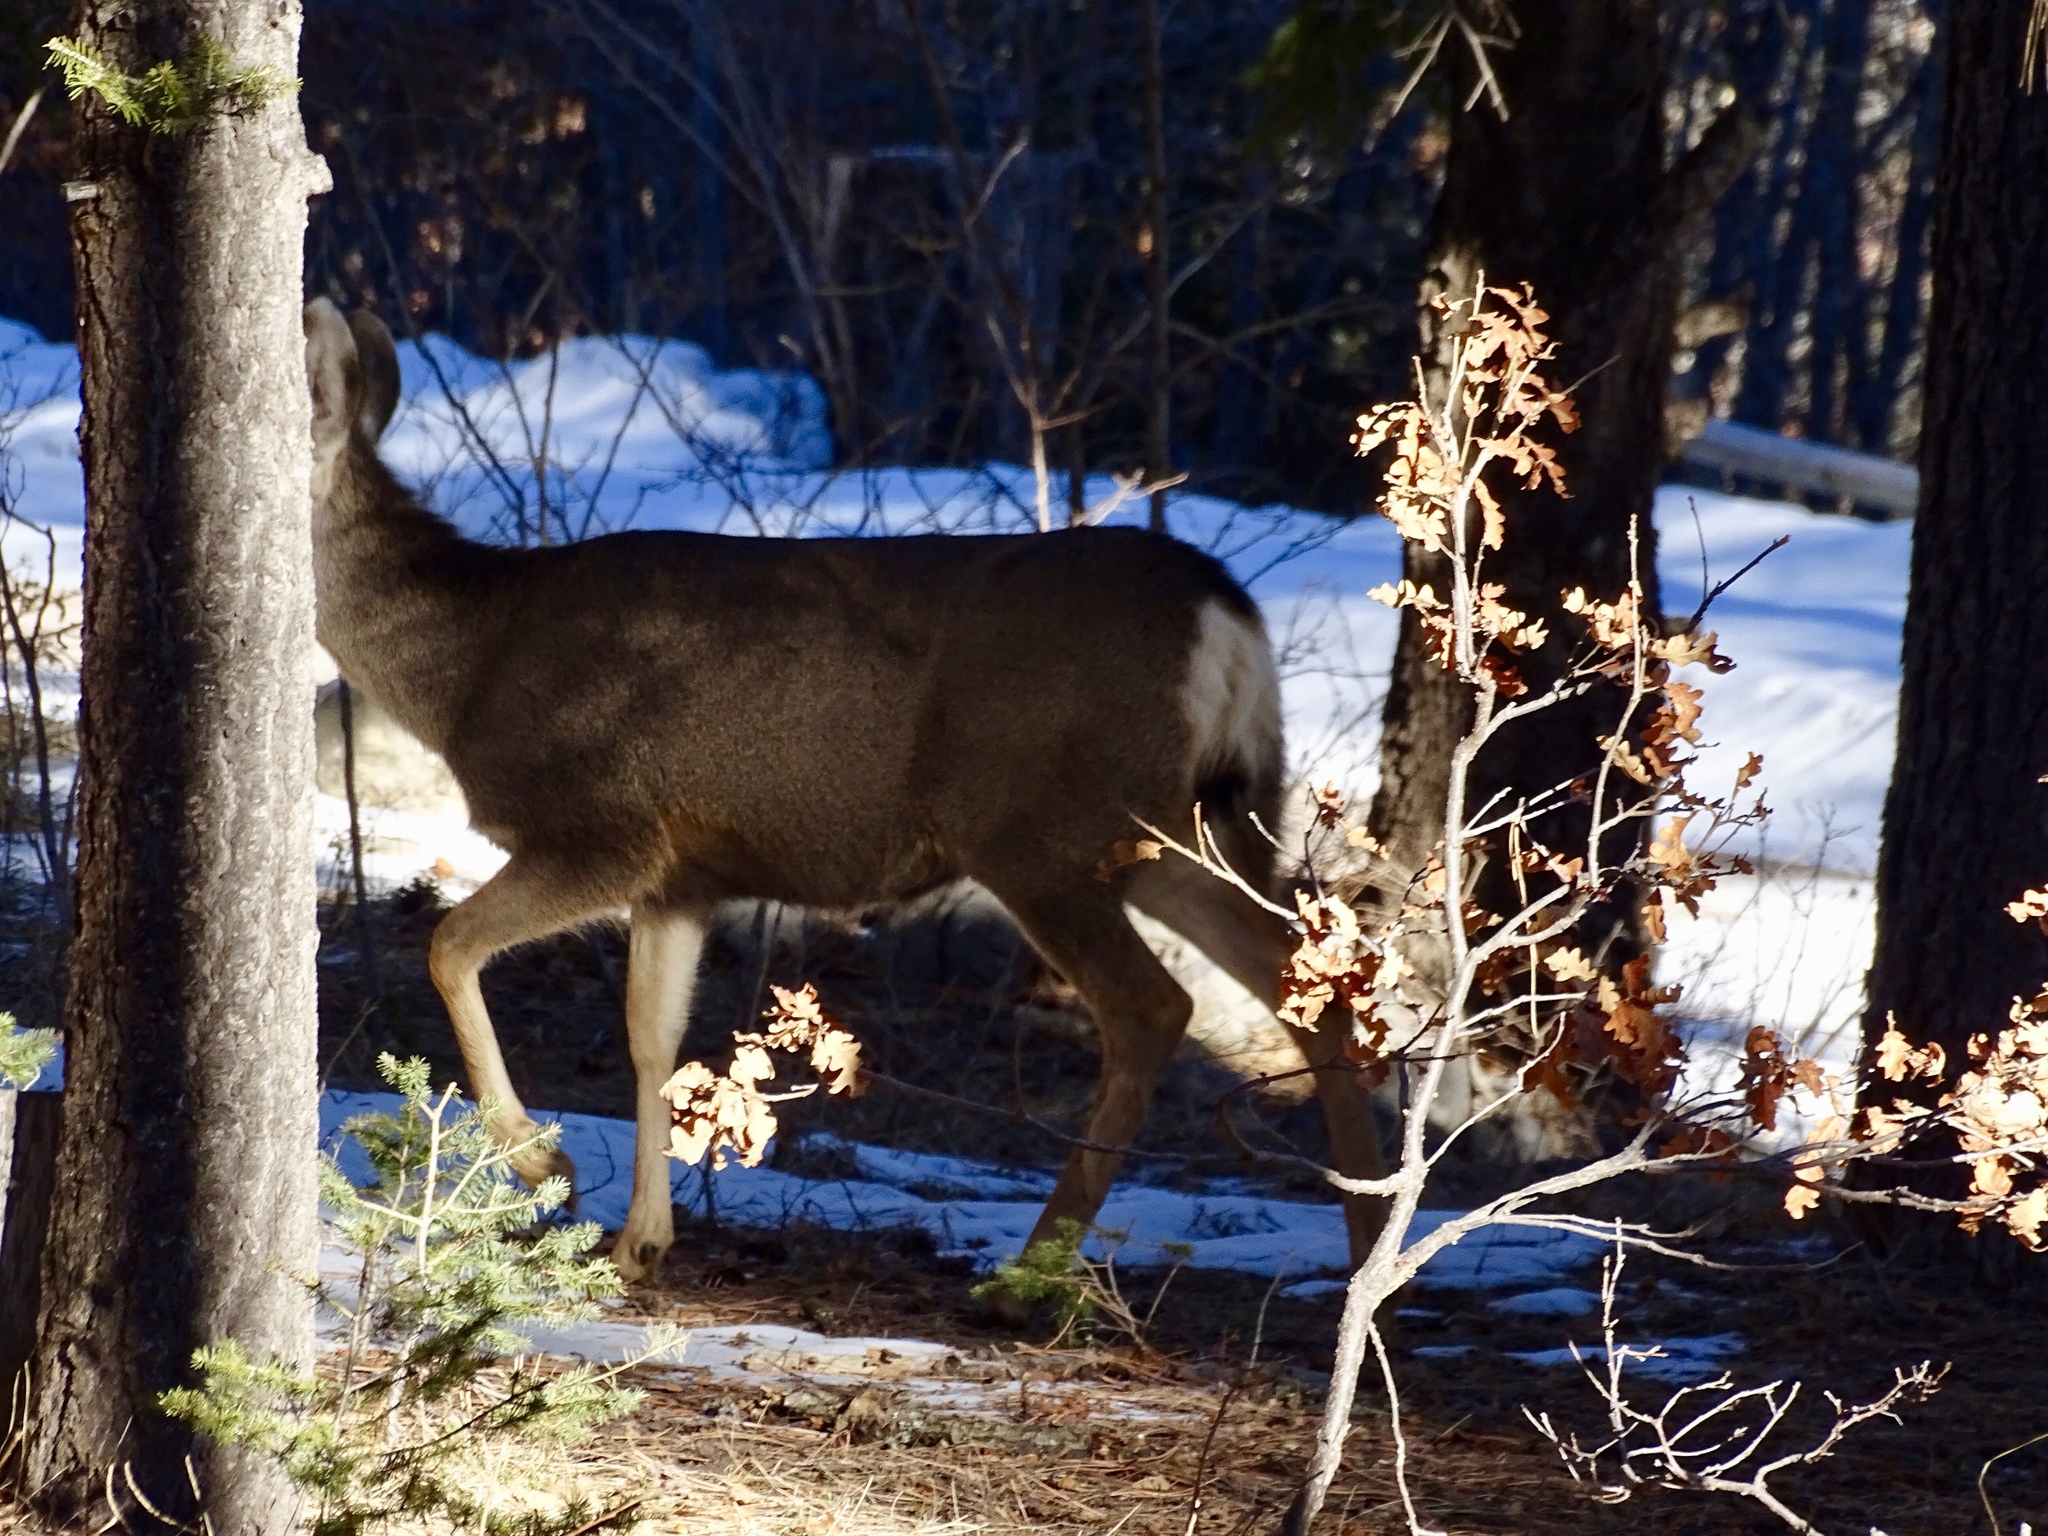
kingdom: Animalia
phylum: Chordata
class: Mammalia
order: Artiodactyla
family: Cervidae
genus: Odocoileus
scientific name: Odocoileus hemionus
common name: Mule deer
